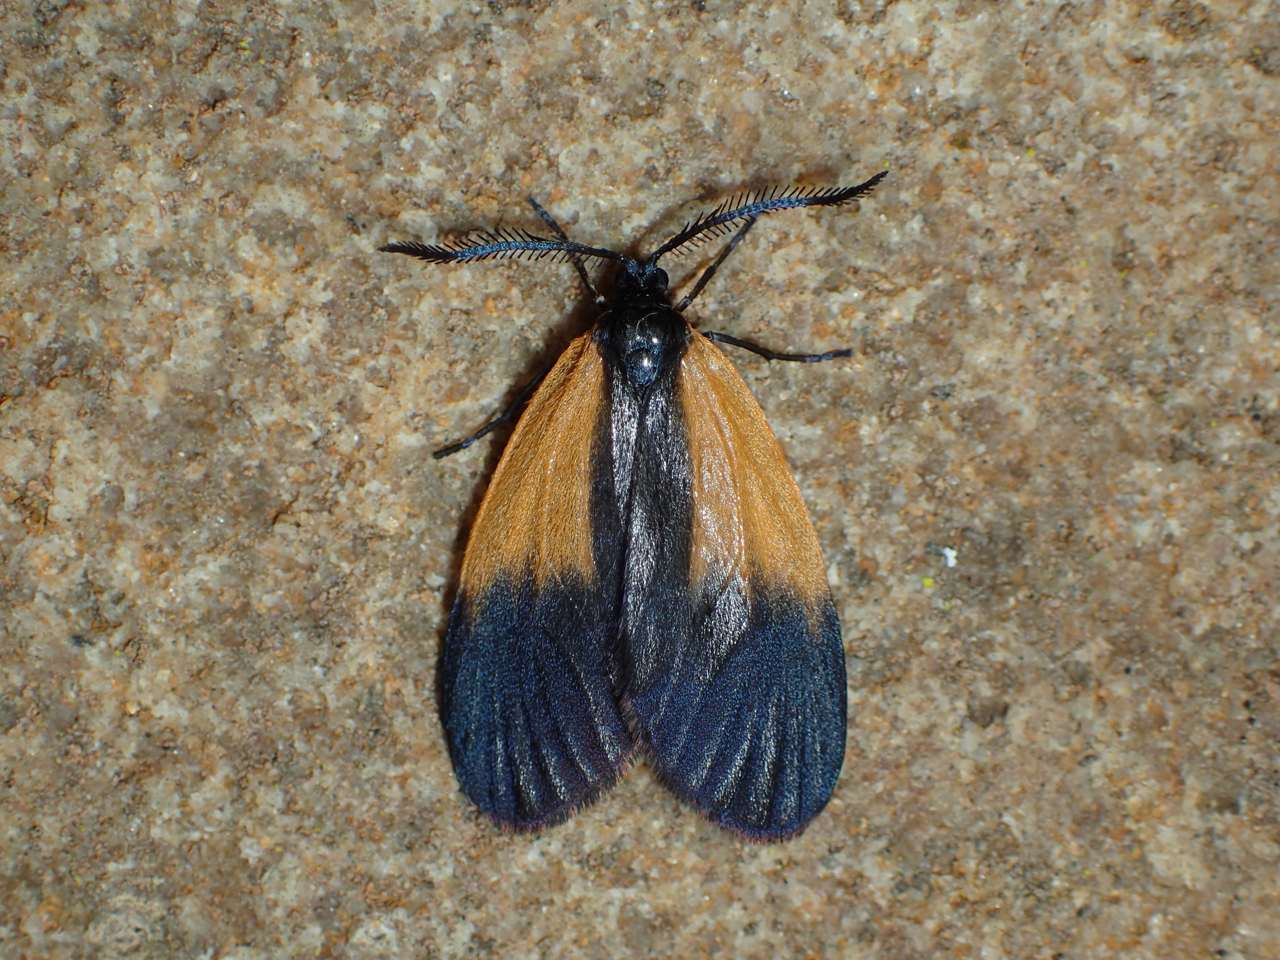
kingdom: Animalia
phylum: Arthropoda
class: Insecta
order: Lepidoptera
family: Zygaenidae
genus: Malthaca
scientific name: Malthaca dimidiata
